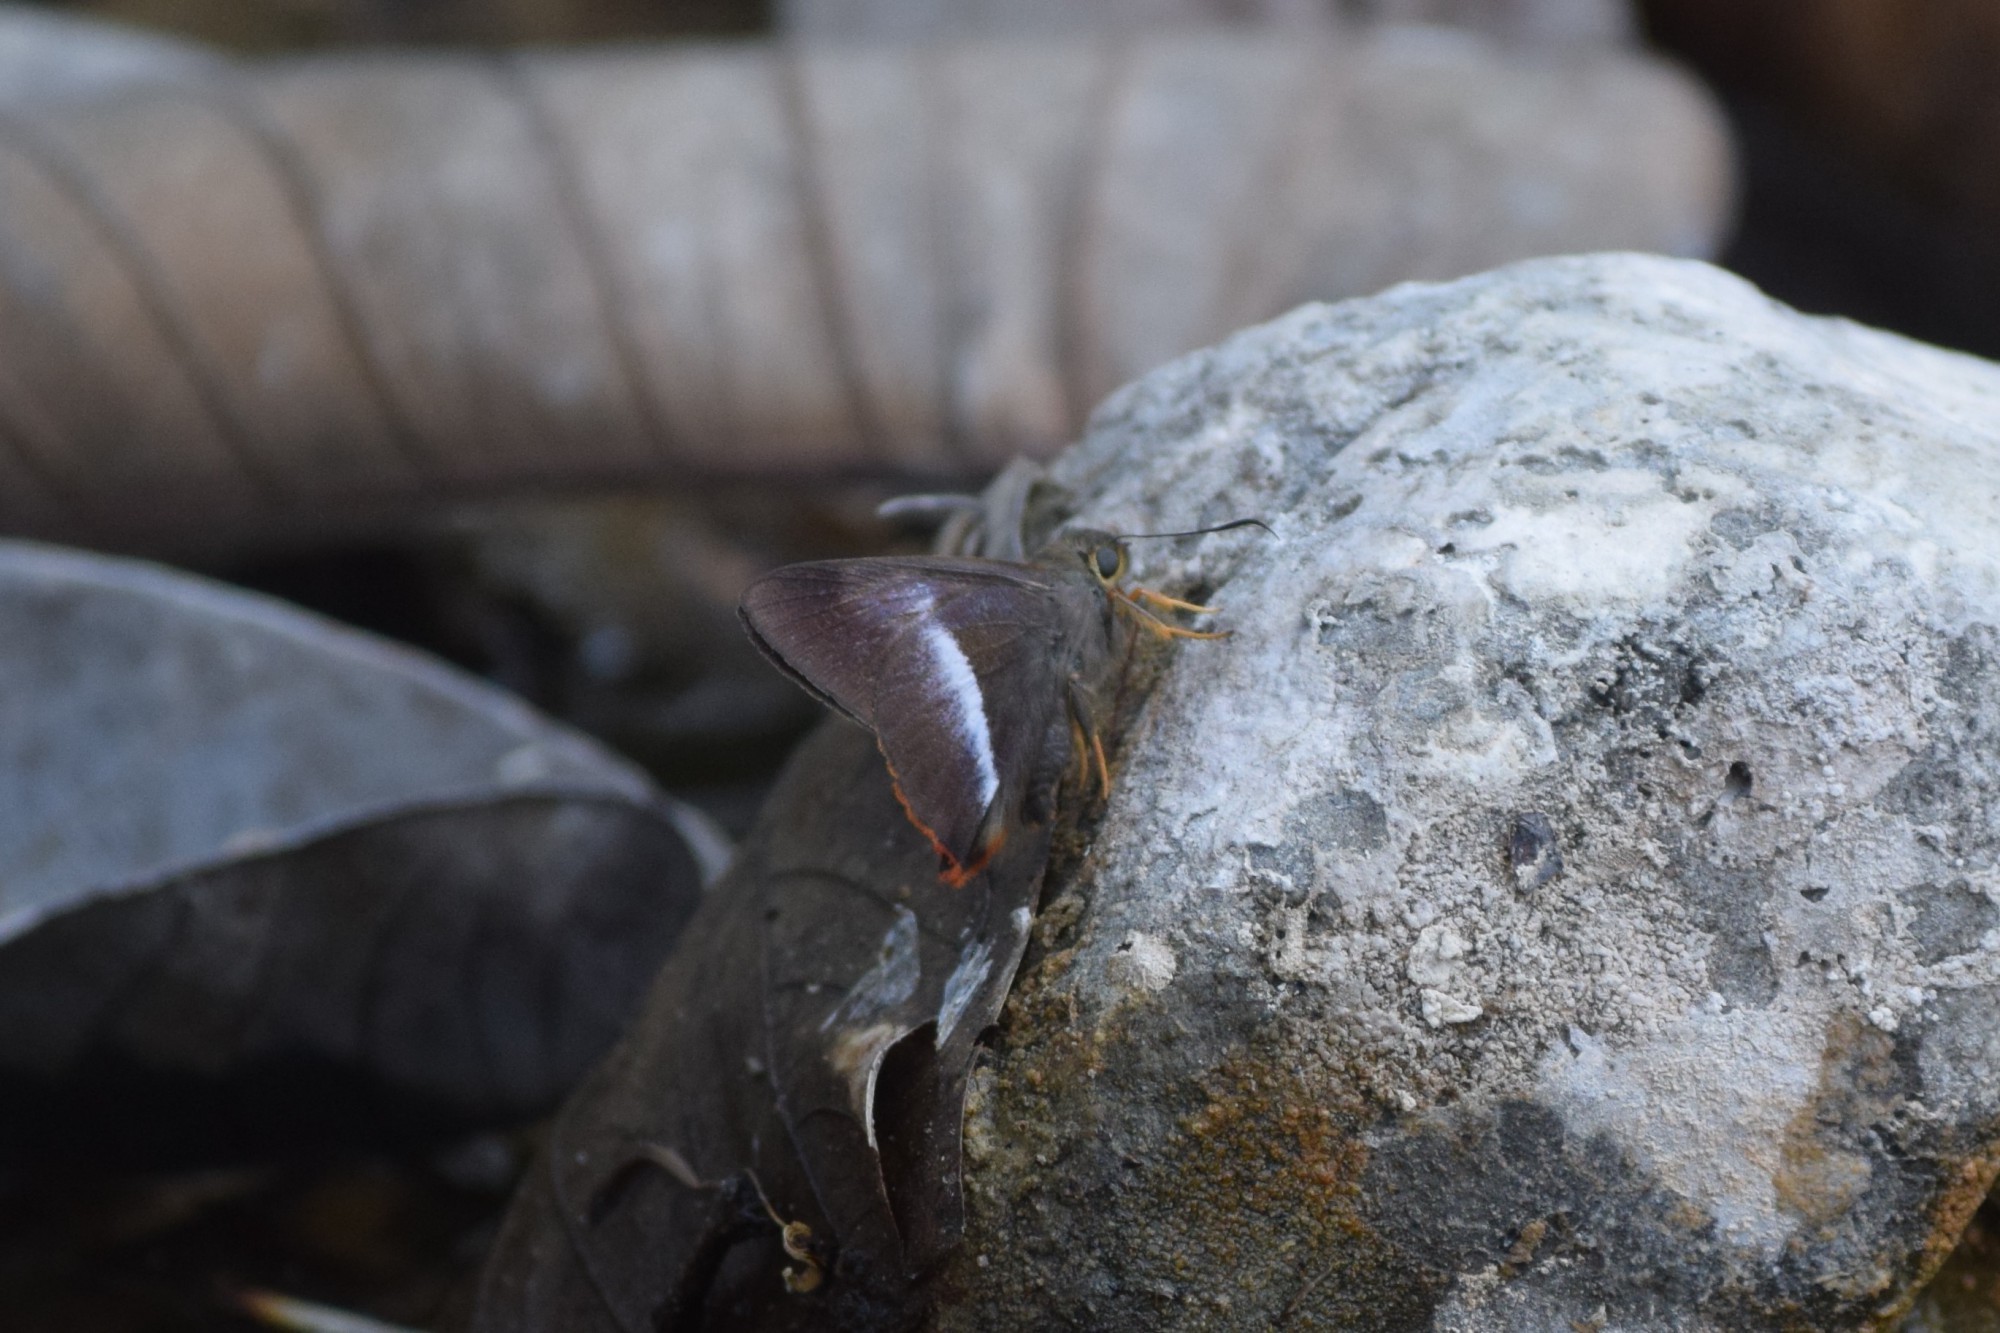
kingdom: Animalia
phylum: Arthropoda
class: Insecta
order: Lepidoptera
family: Hesperiidae
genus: Bibasis
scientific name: Bibasis sena
